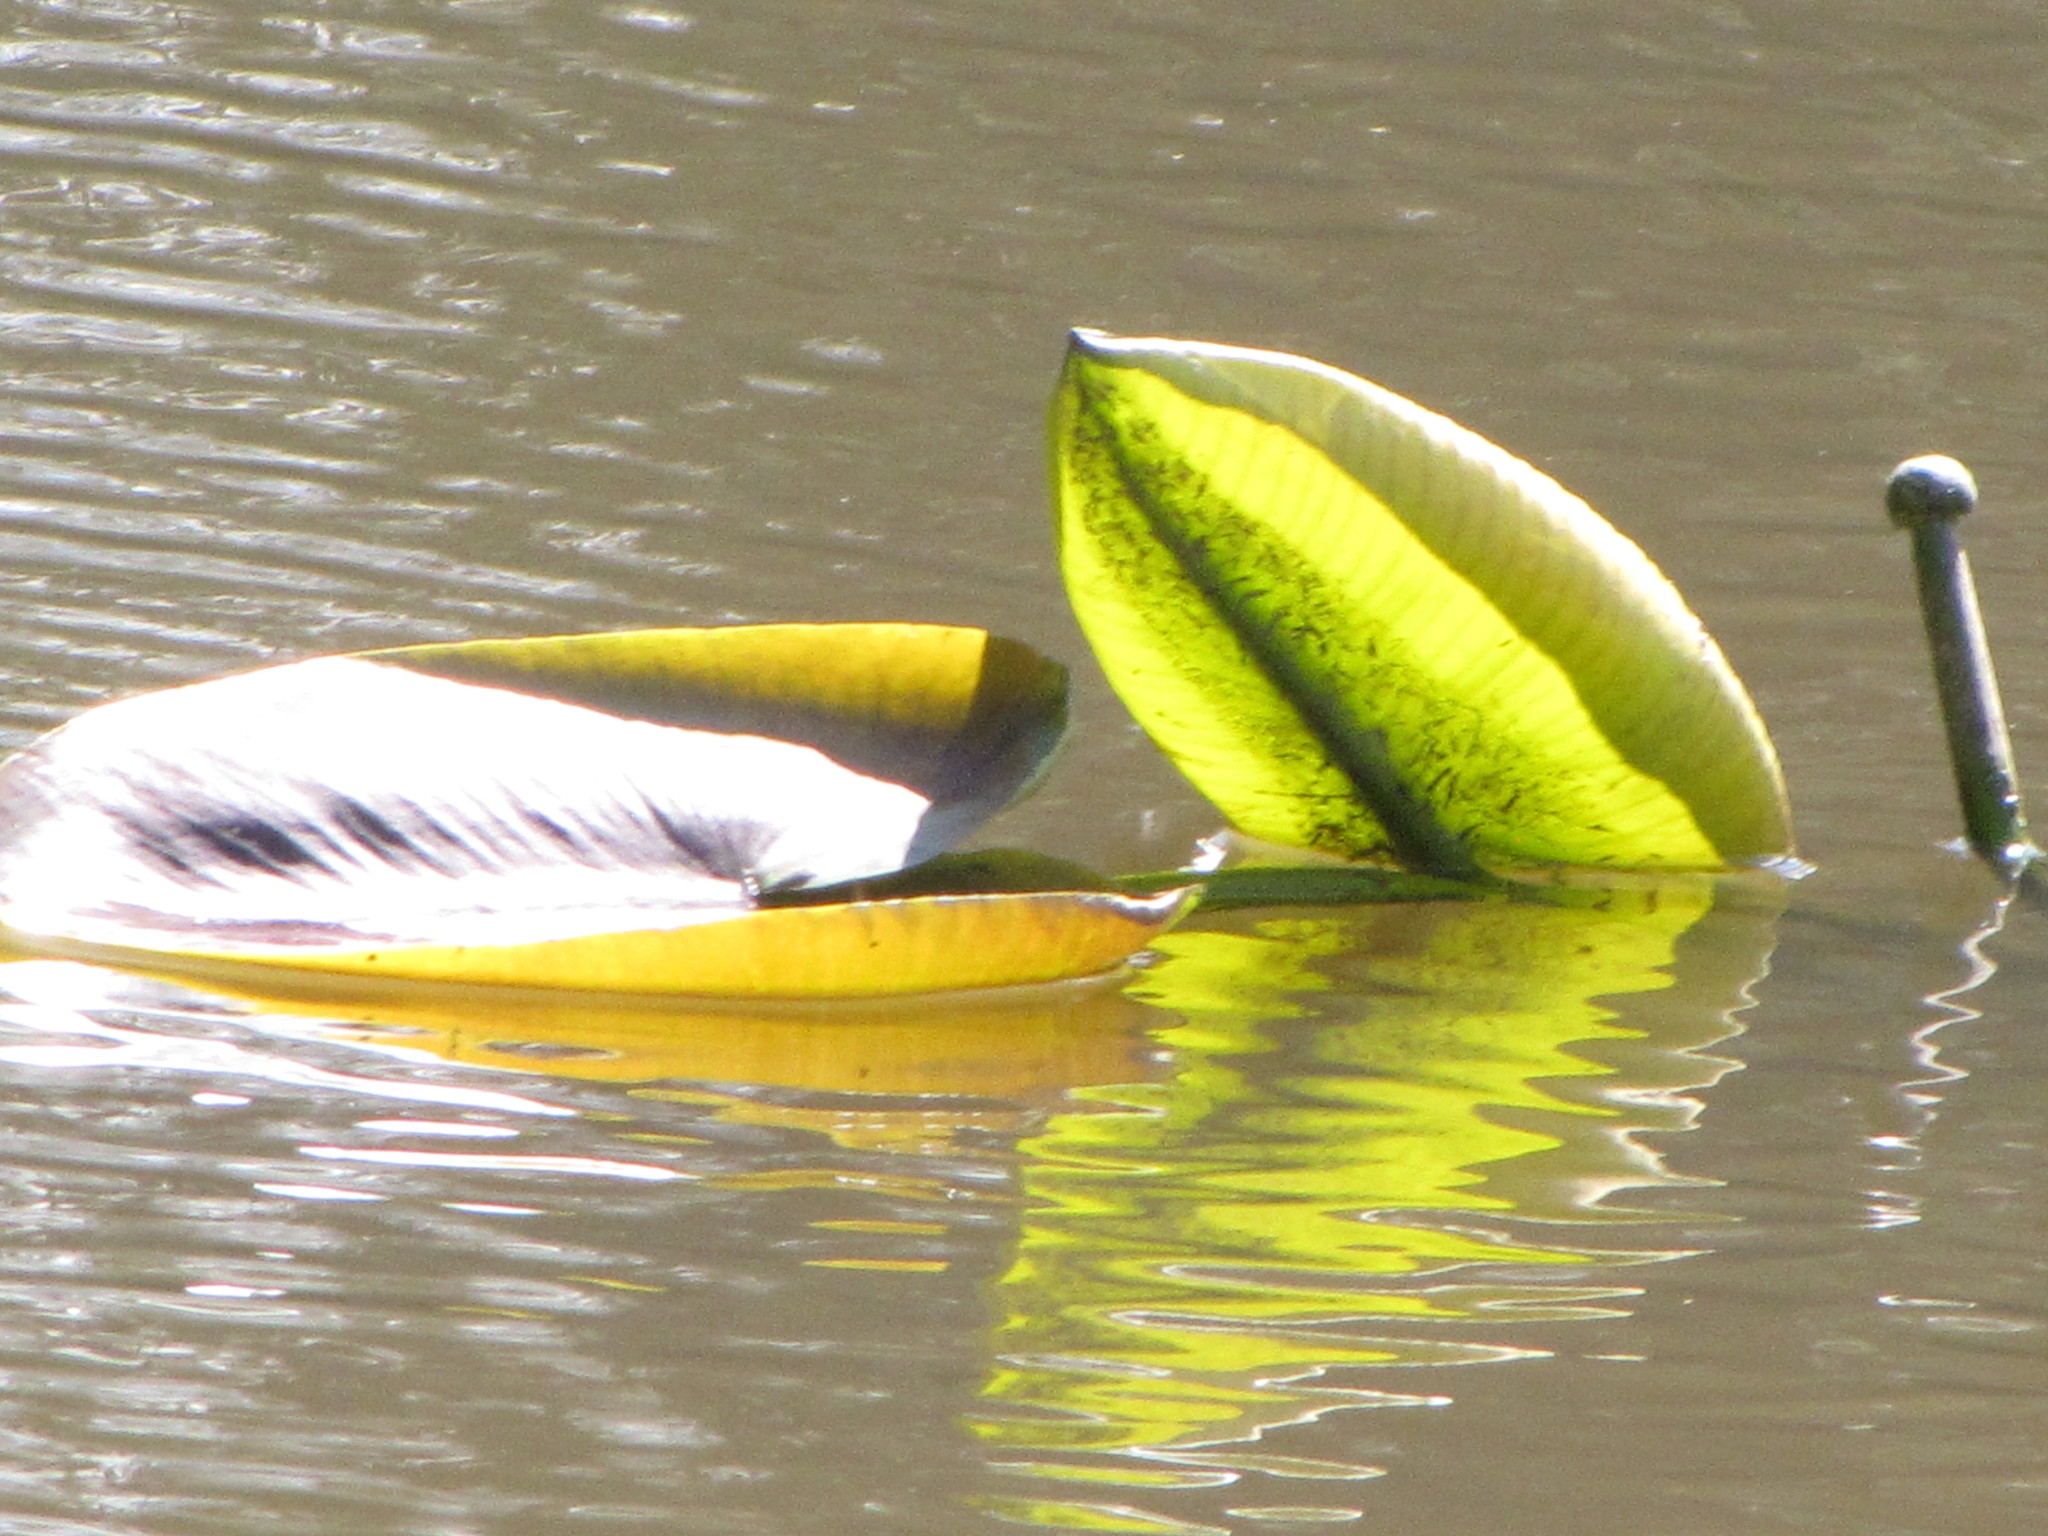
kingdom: Plantae
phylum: Tracheophyta
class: Magnoliopsida
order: Nymphaeales
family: Nymphaeaceae
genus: Nuphar
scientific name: Nuphar polysepala
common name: Rocky mountain cow-lily
